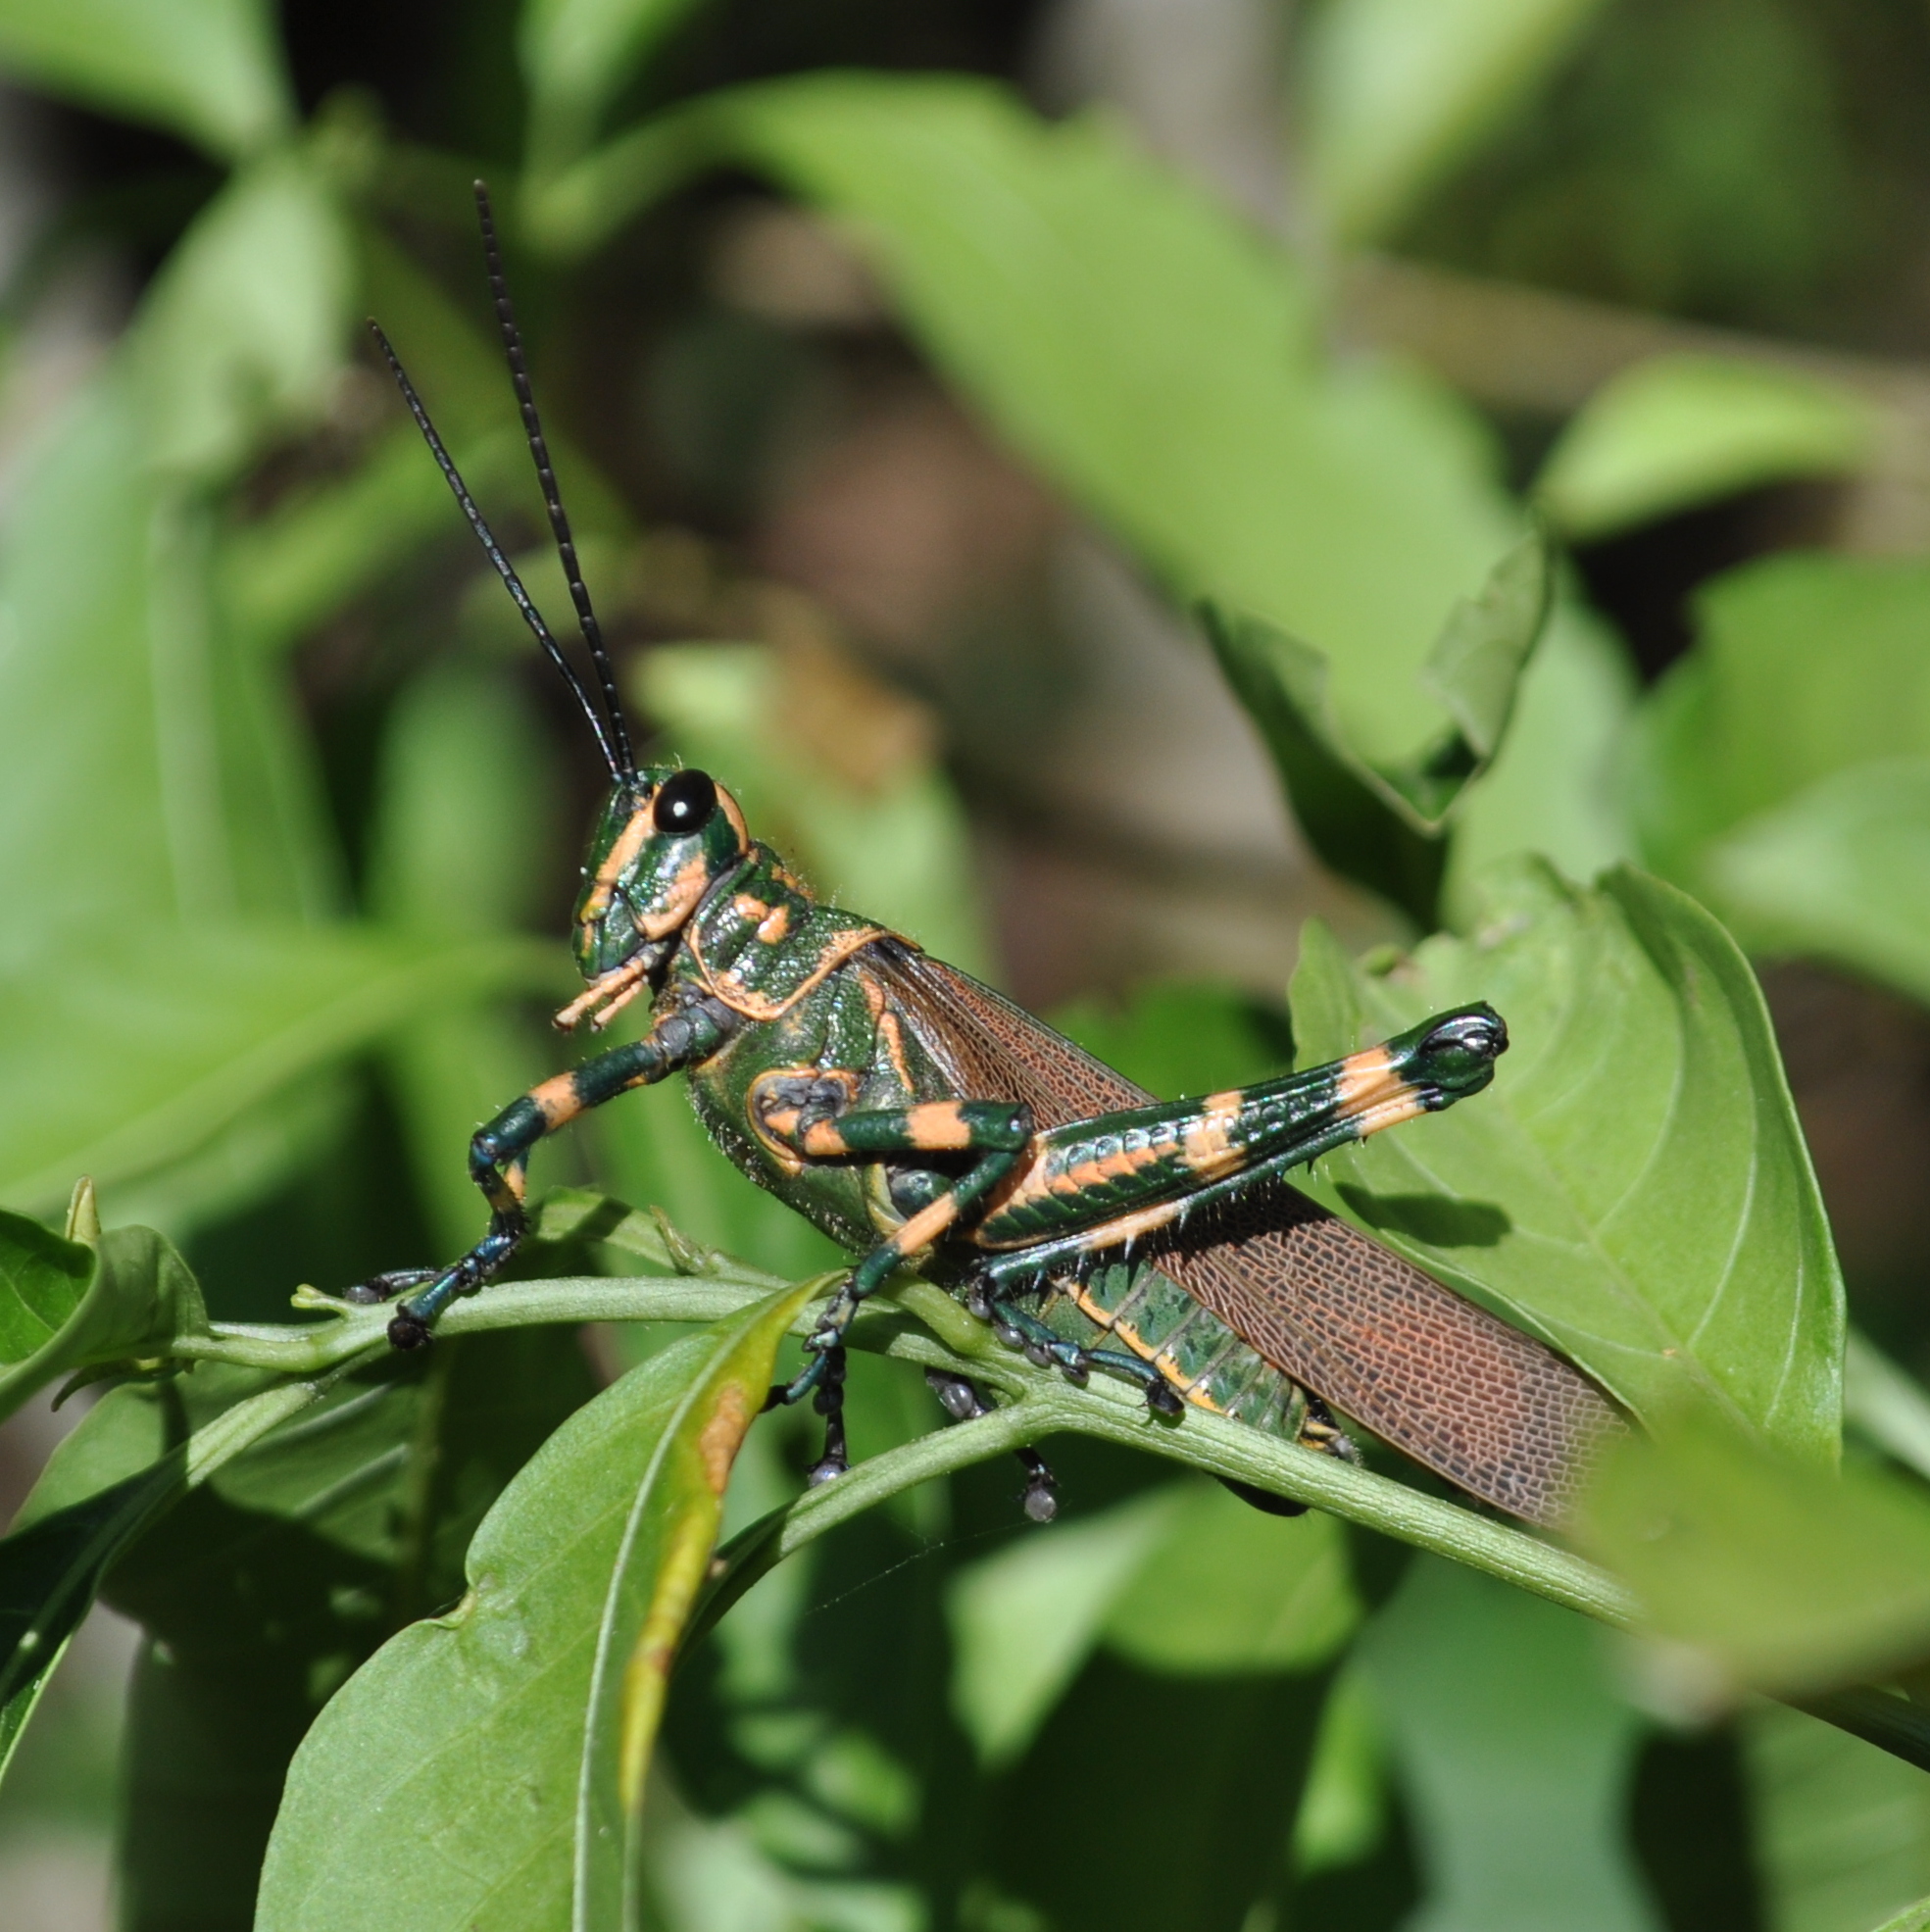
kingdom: Animalia
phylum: Arthropoda
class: Insecta
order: Orthoptera
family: Romaleidae
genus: Chromacris
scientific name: Chromacris speciosa
